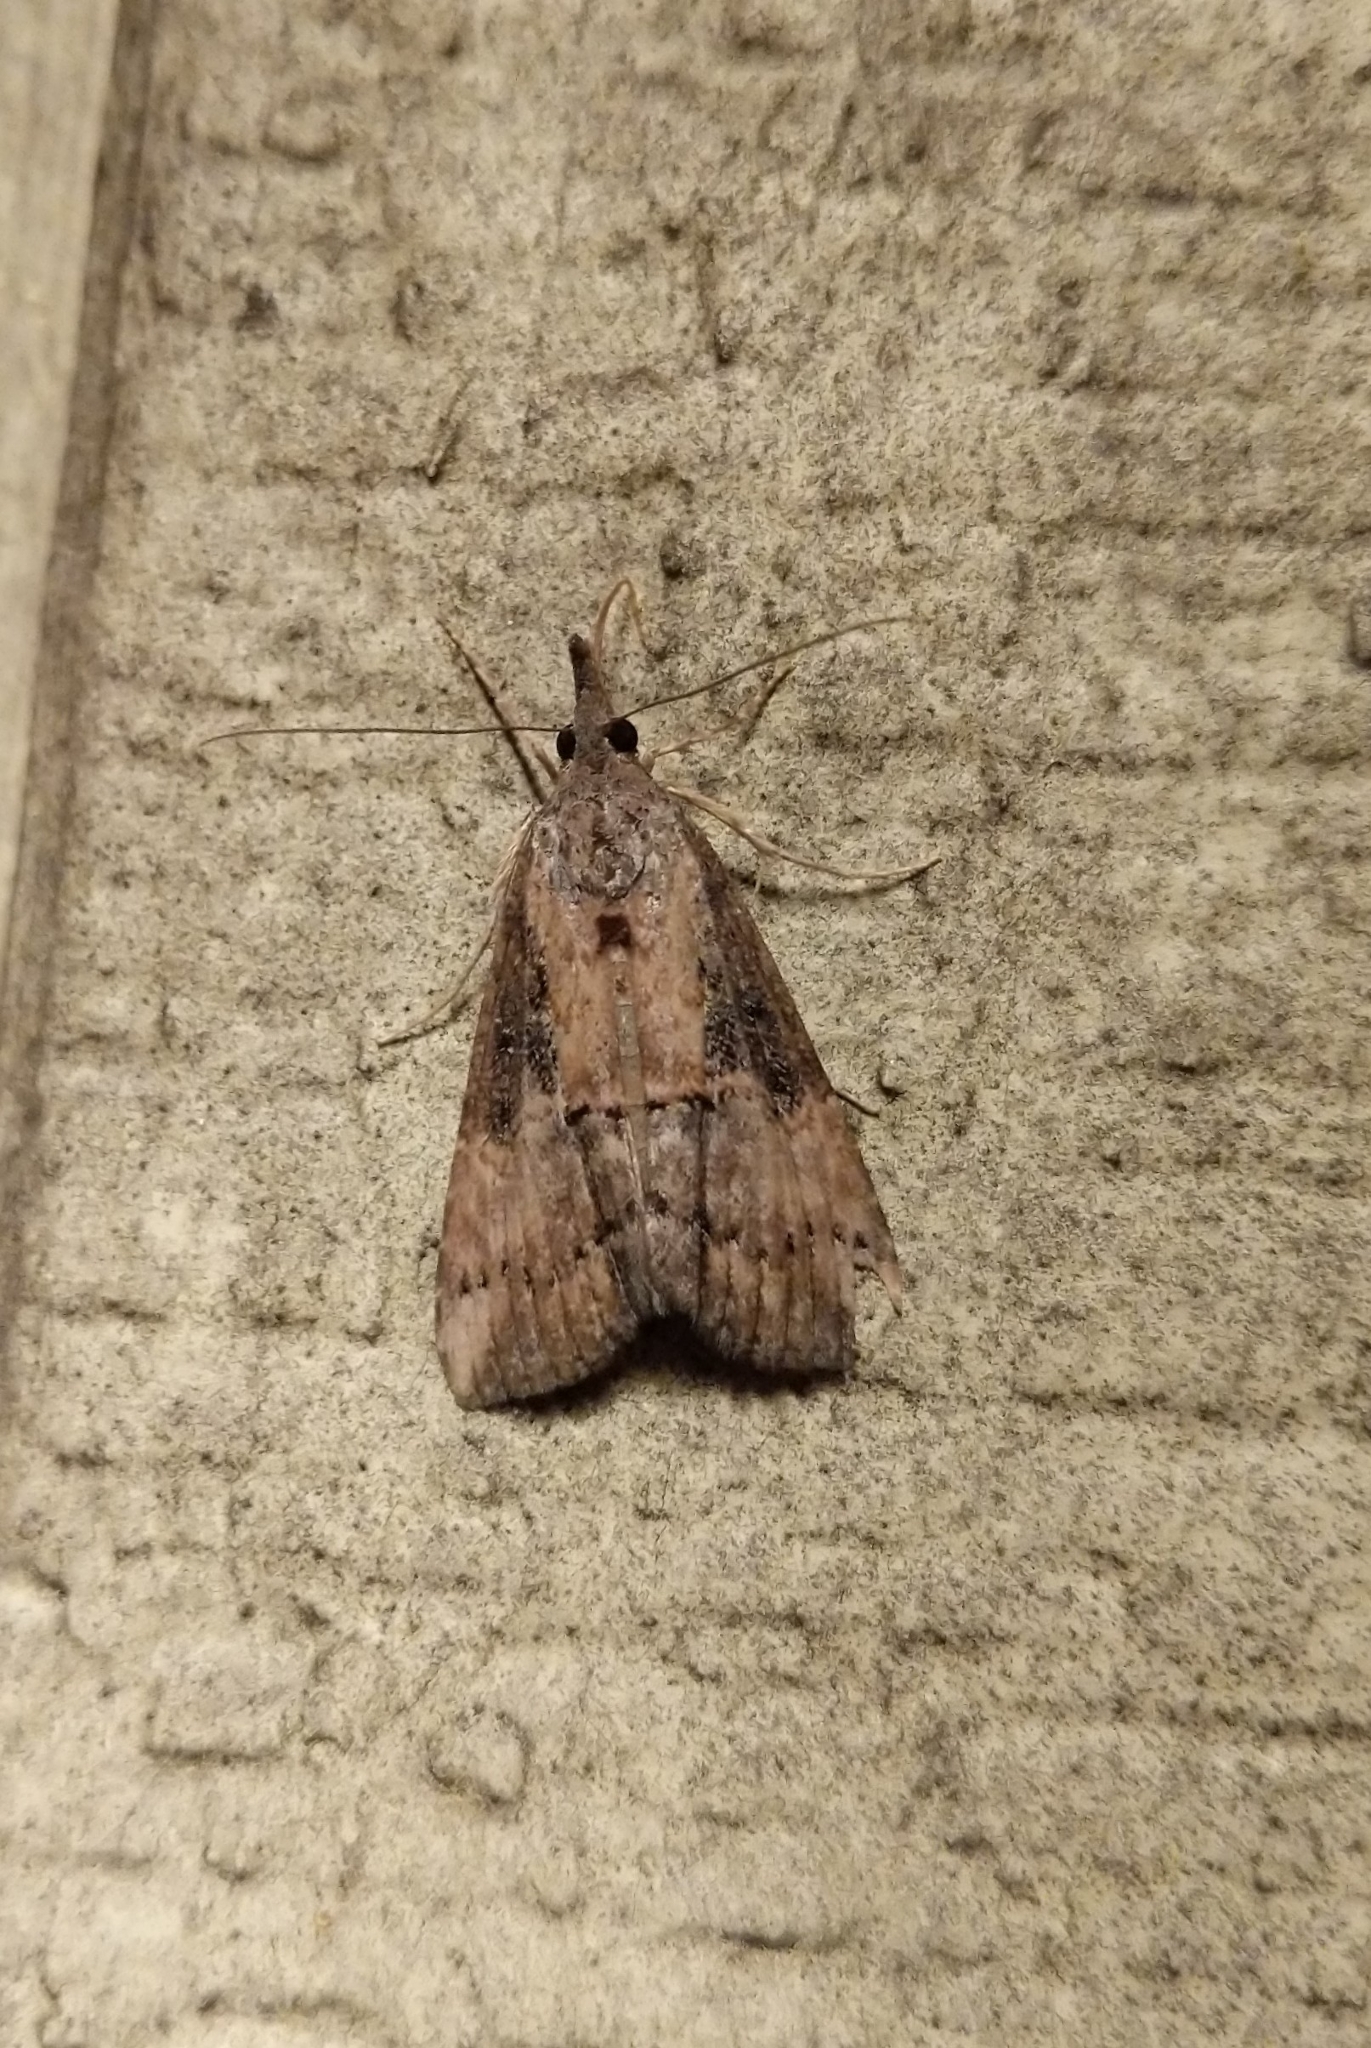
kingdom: Animalia
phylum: Arthropoda
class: Insecta
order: Lepidoptera
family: Erebidae
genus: Hypena
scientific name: Hypena scabra
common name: Green cloverworm
